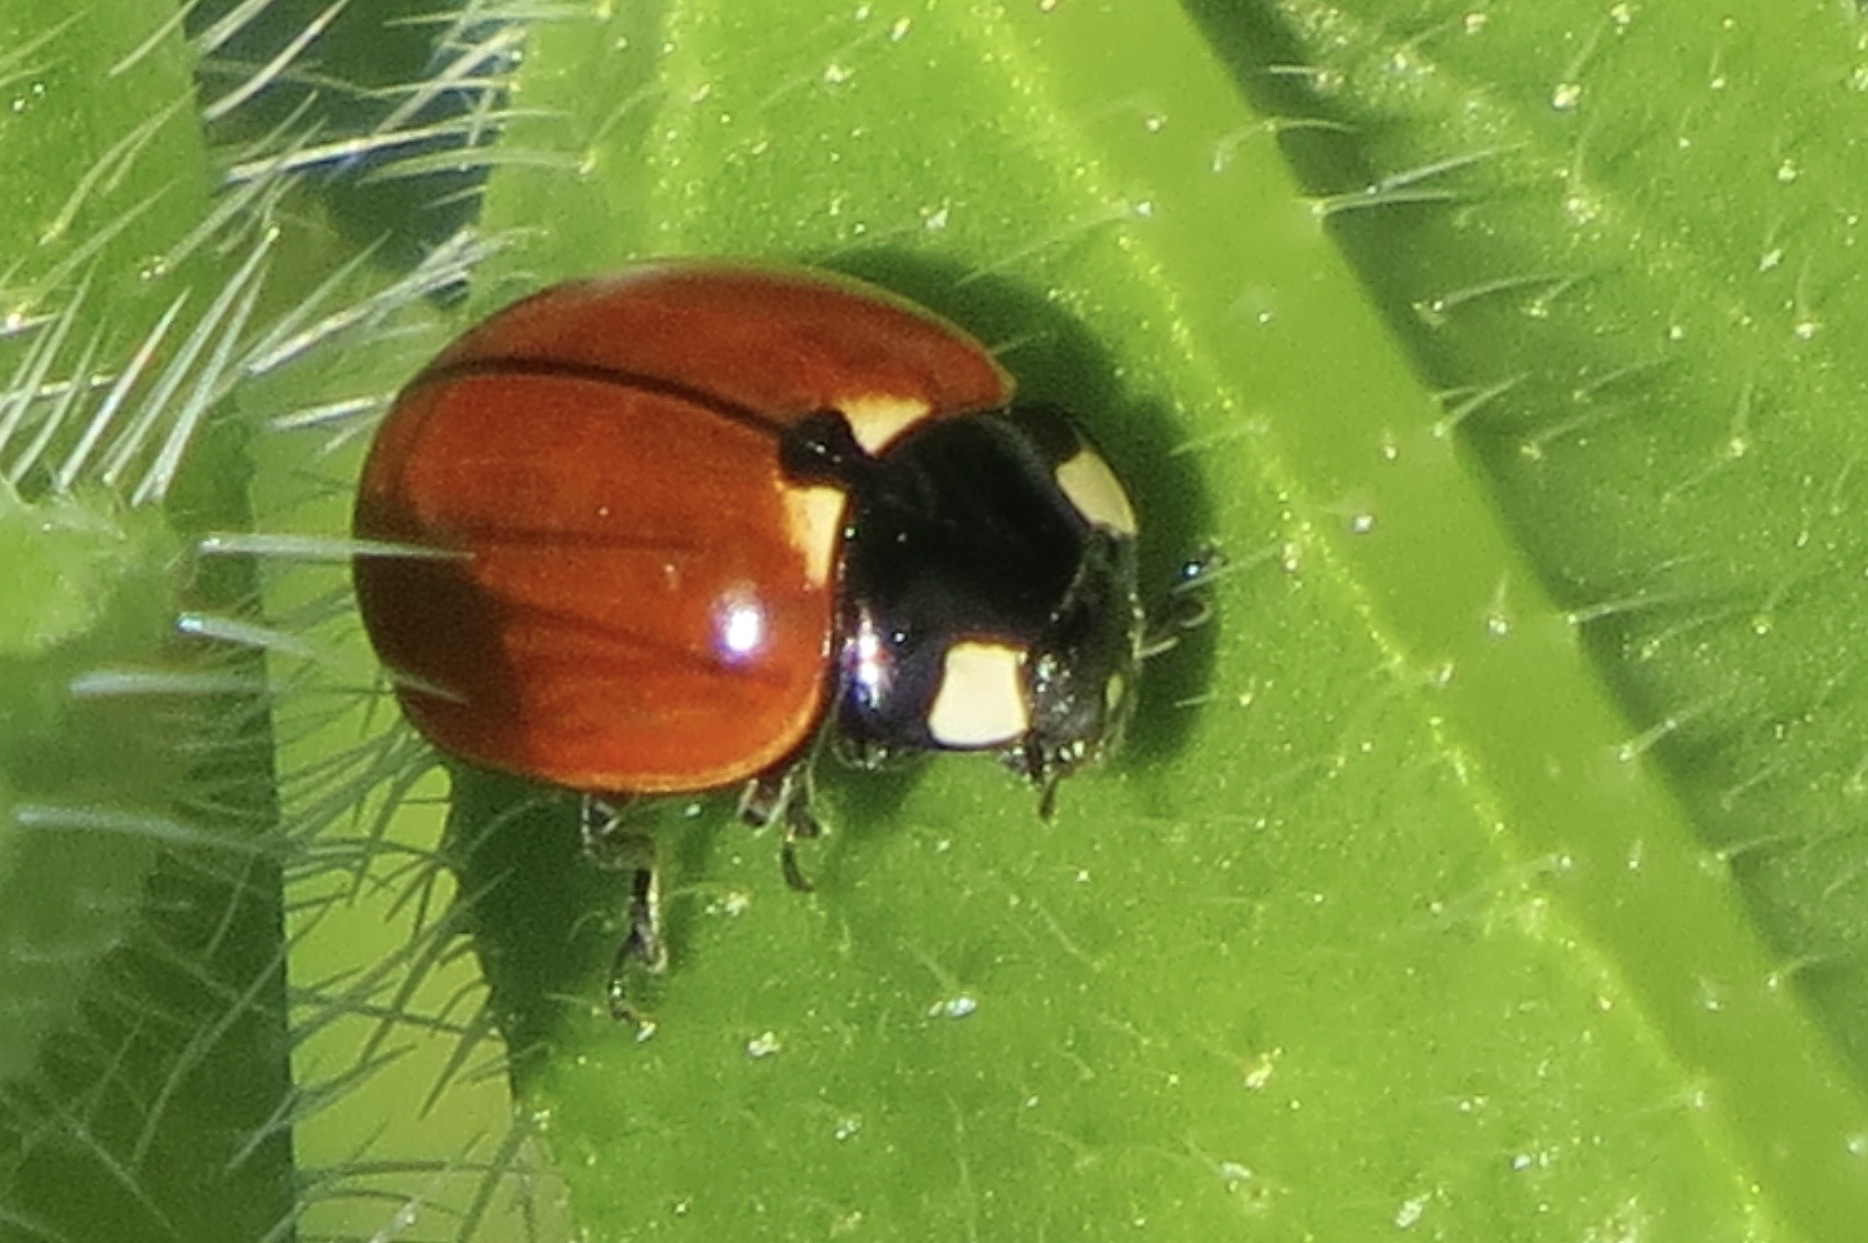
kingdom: Animalia
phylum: Arthropoda
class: Insecta
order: Coleoptera
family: Coccinellidae
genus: Coccinella
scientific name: Coccinella californica
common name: Lady beetle
